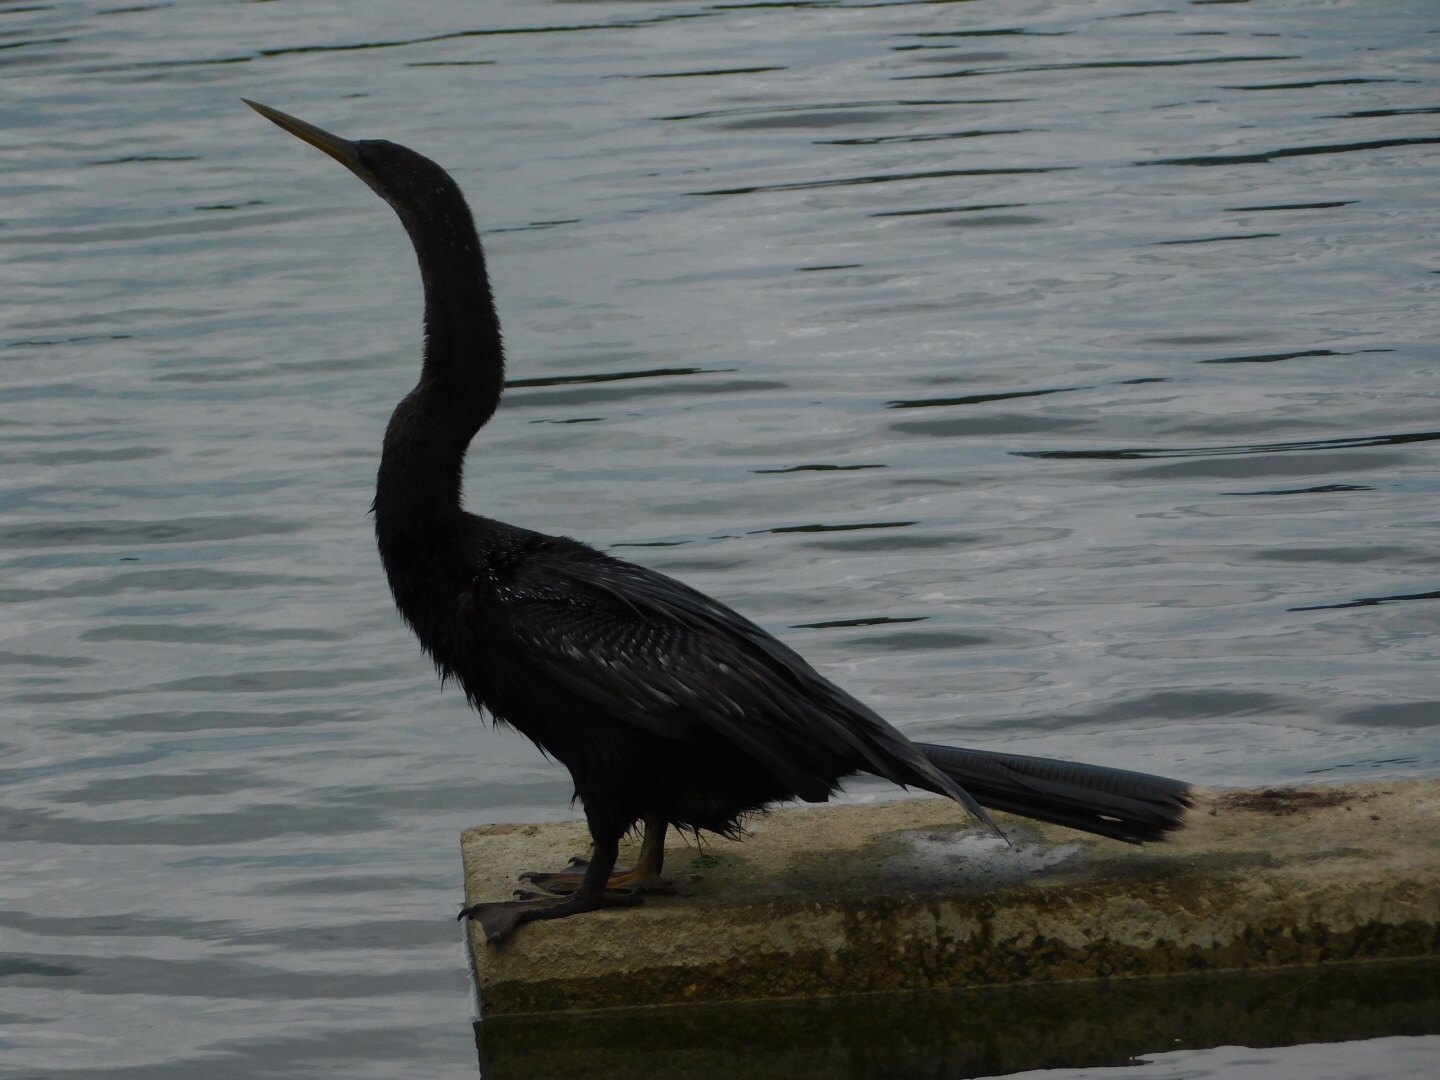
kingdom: Animalia
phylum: Chordata
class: Aves
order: Suliformes
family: Anhingidae
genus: Anhinga
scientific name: Anhinga anhinga
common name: Anhinga
